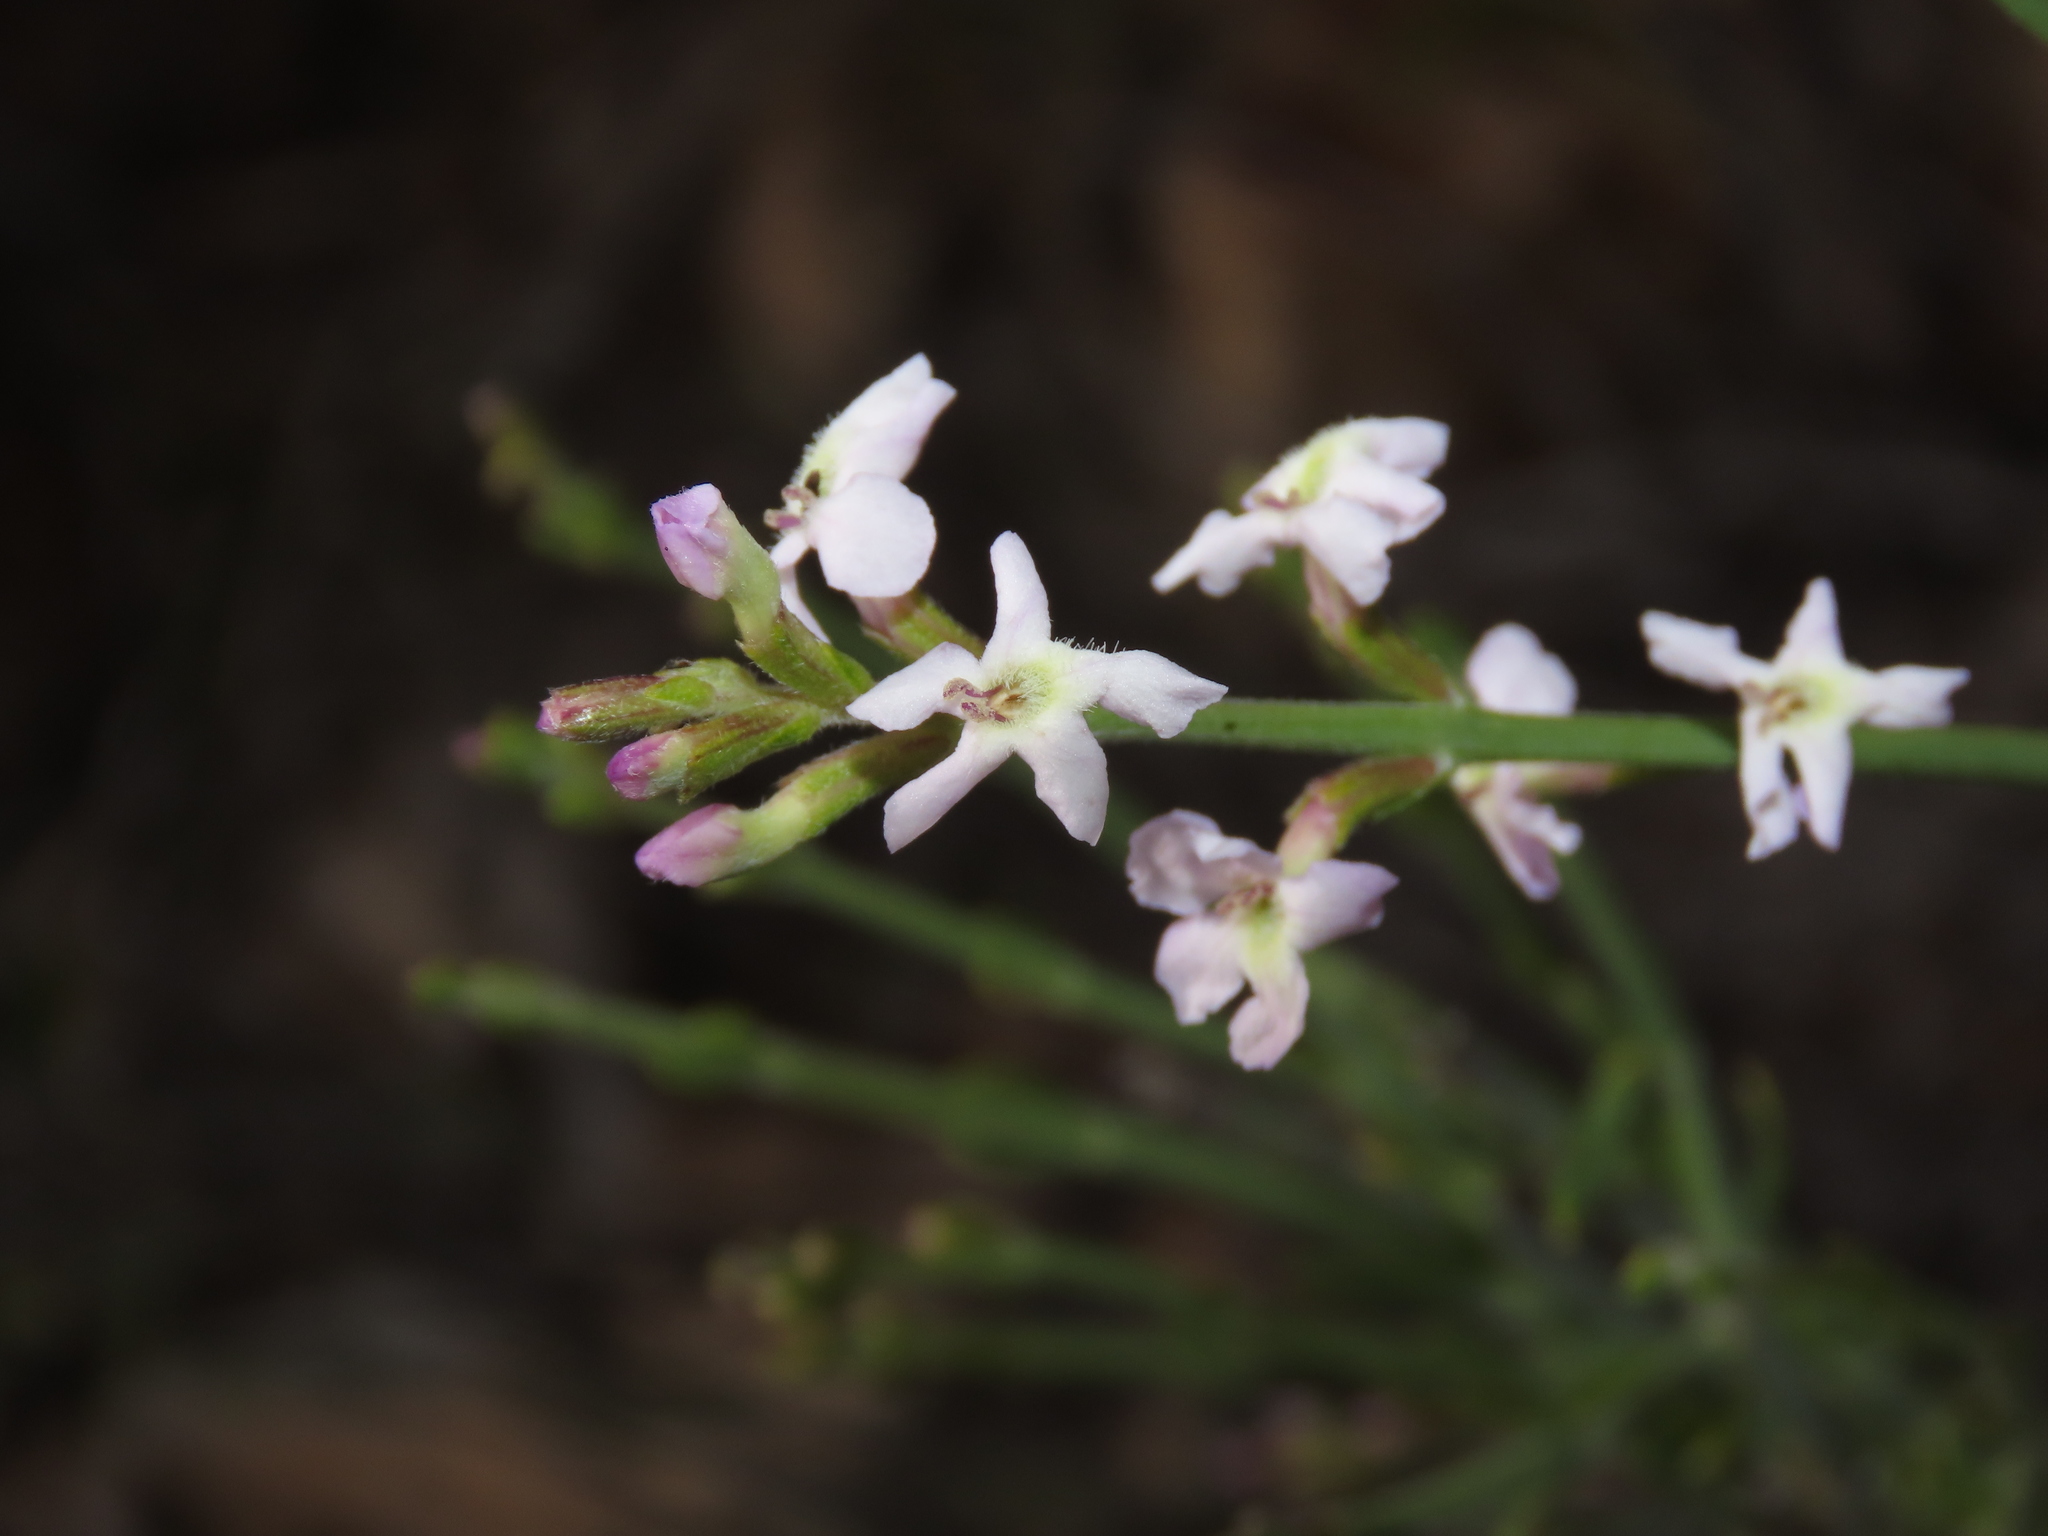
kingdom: Plantae
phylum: Tracheophyta
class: Magnoliopsida
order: Lamiales
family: Verbenaceae
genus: Mulguraea
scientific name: Mulguraea cinerascens
